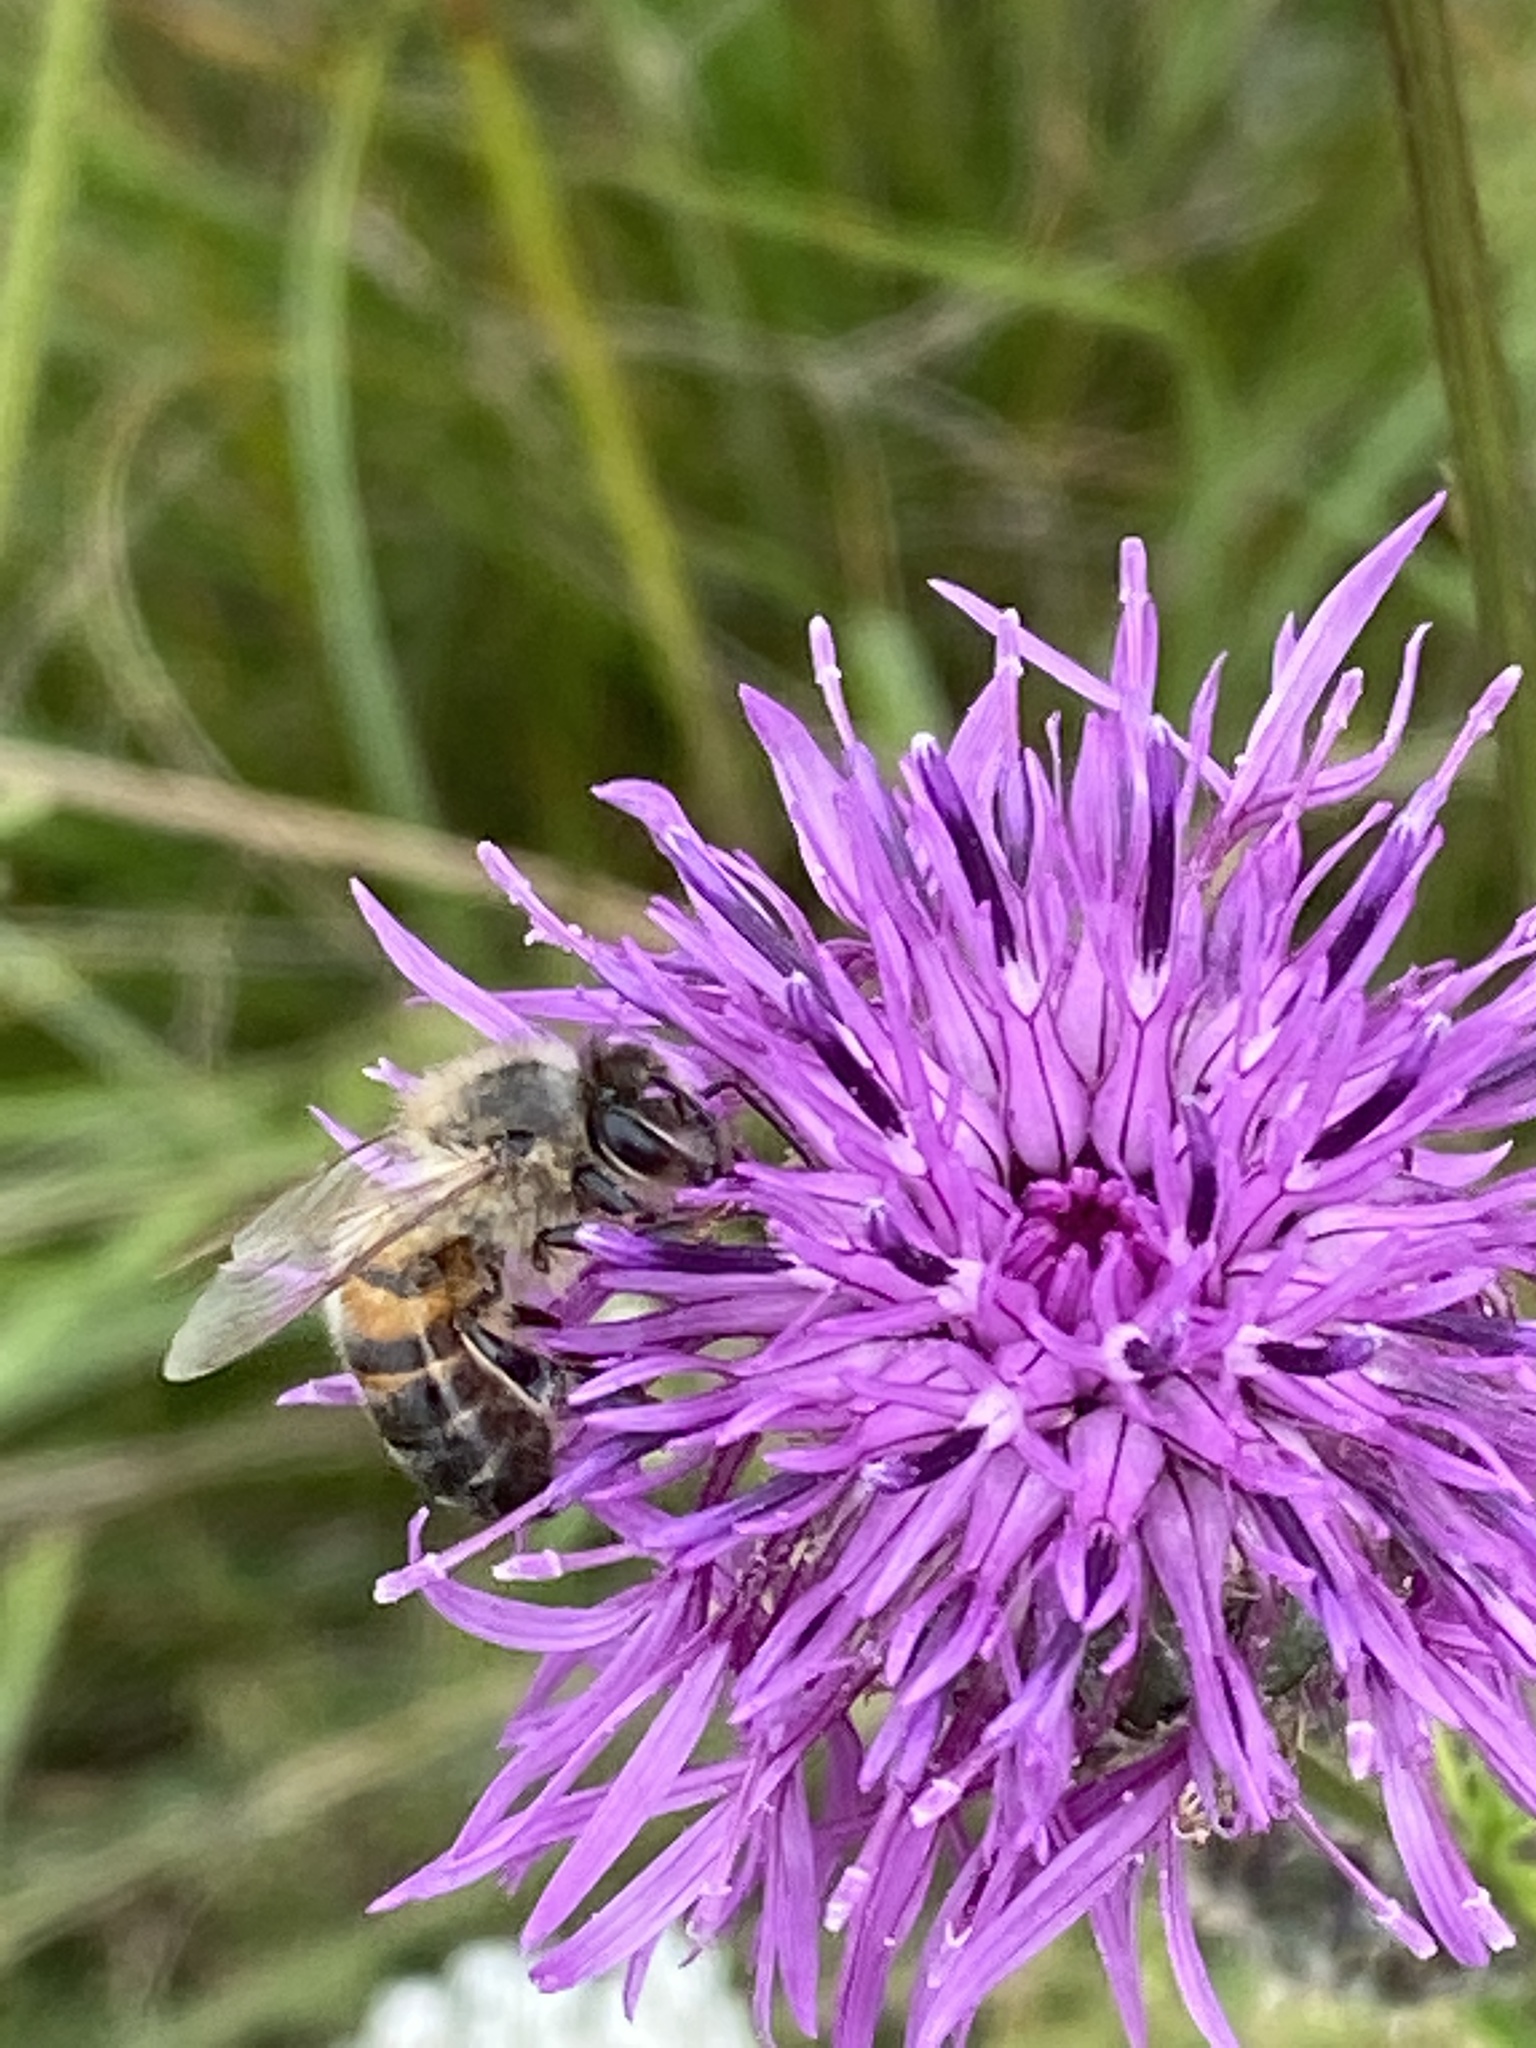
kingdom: Animalia
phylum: Arthropoda
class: Insecta
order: Hymenoptera
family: Apidae
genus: Apis
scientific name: Apis mellifera
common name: Honey bee
